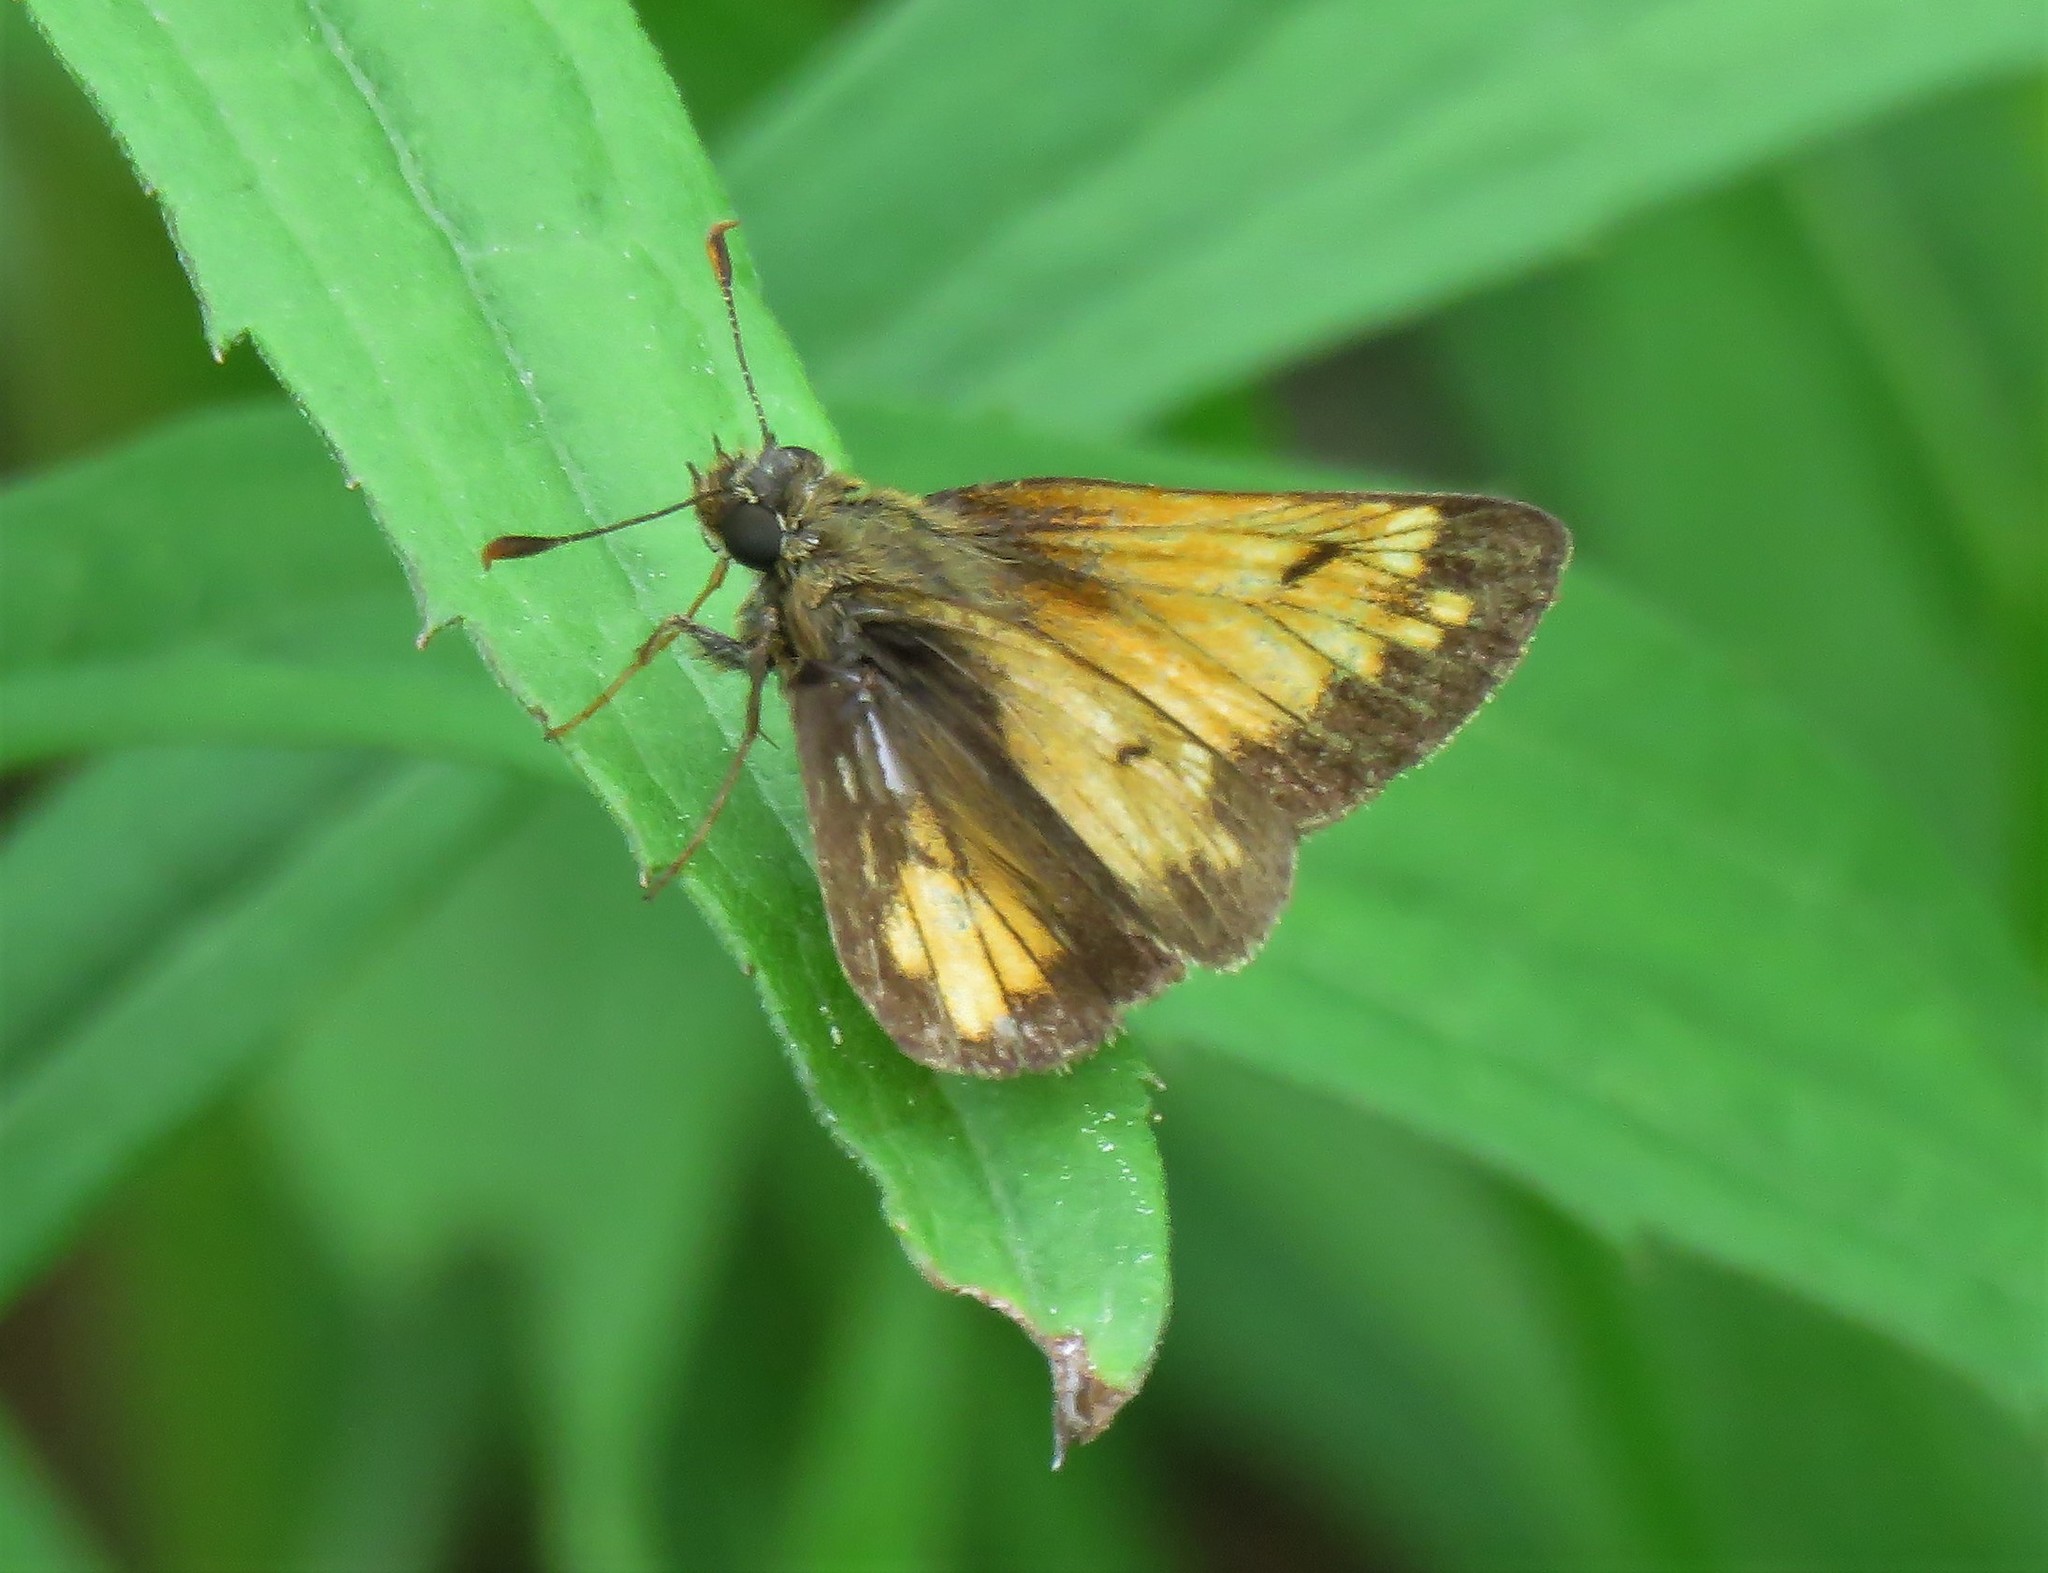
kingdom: Animalia
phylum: Arthropoda
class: Insecta
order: Lepidoptera
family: Hesperiidae
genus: Lon
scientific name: Lon hobomok
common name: Hobomok skipper
